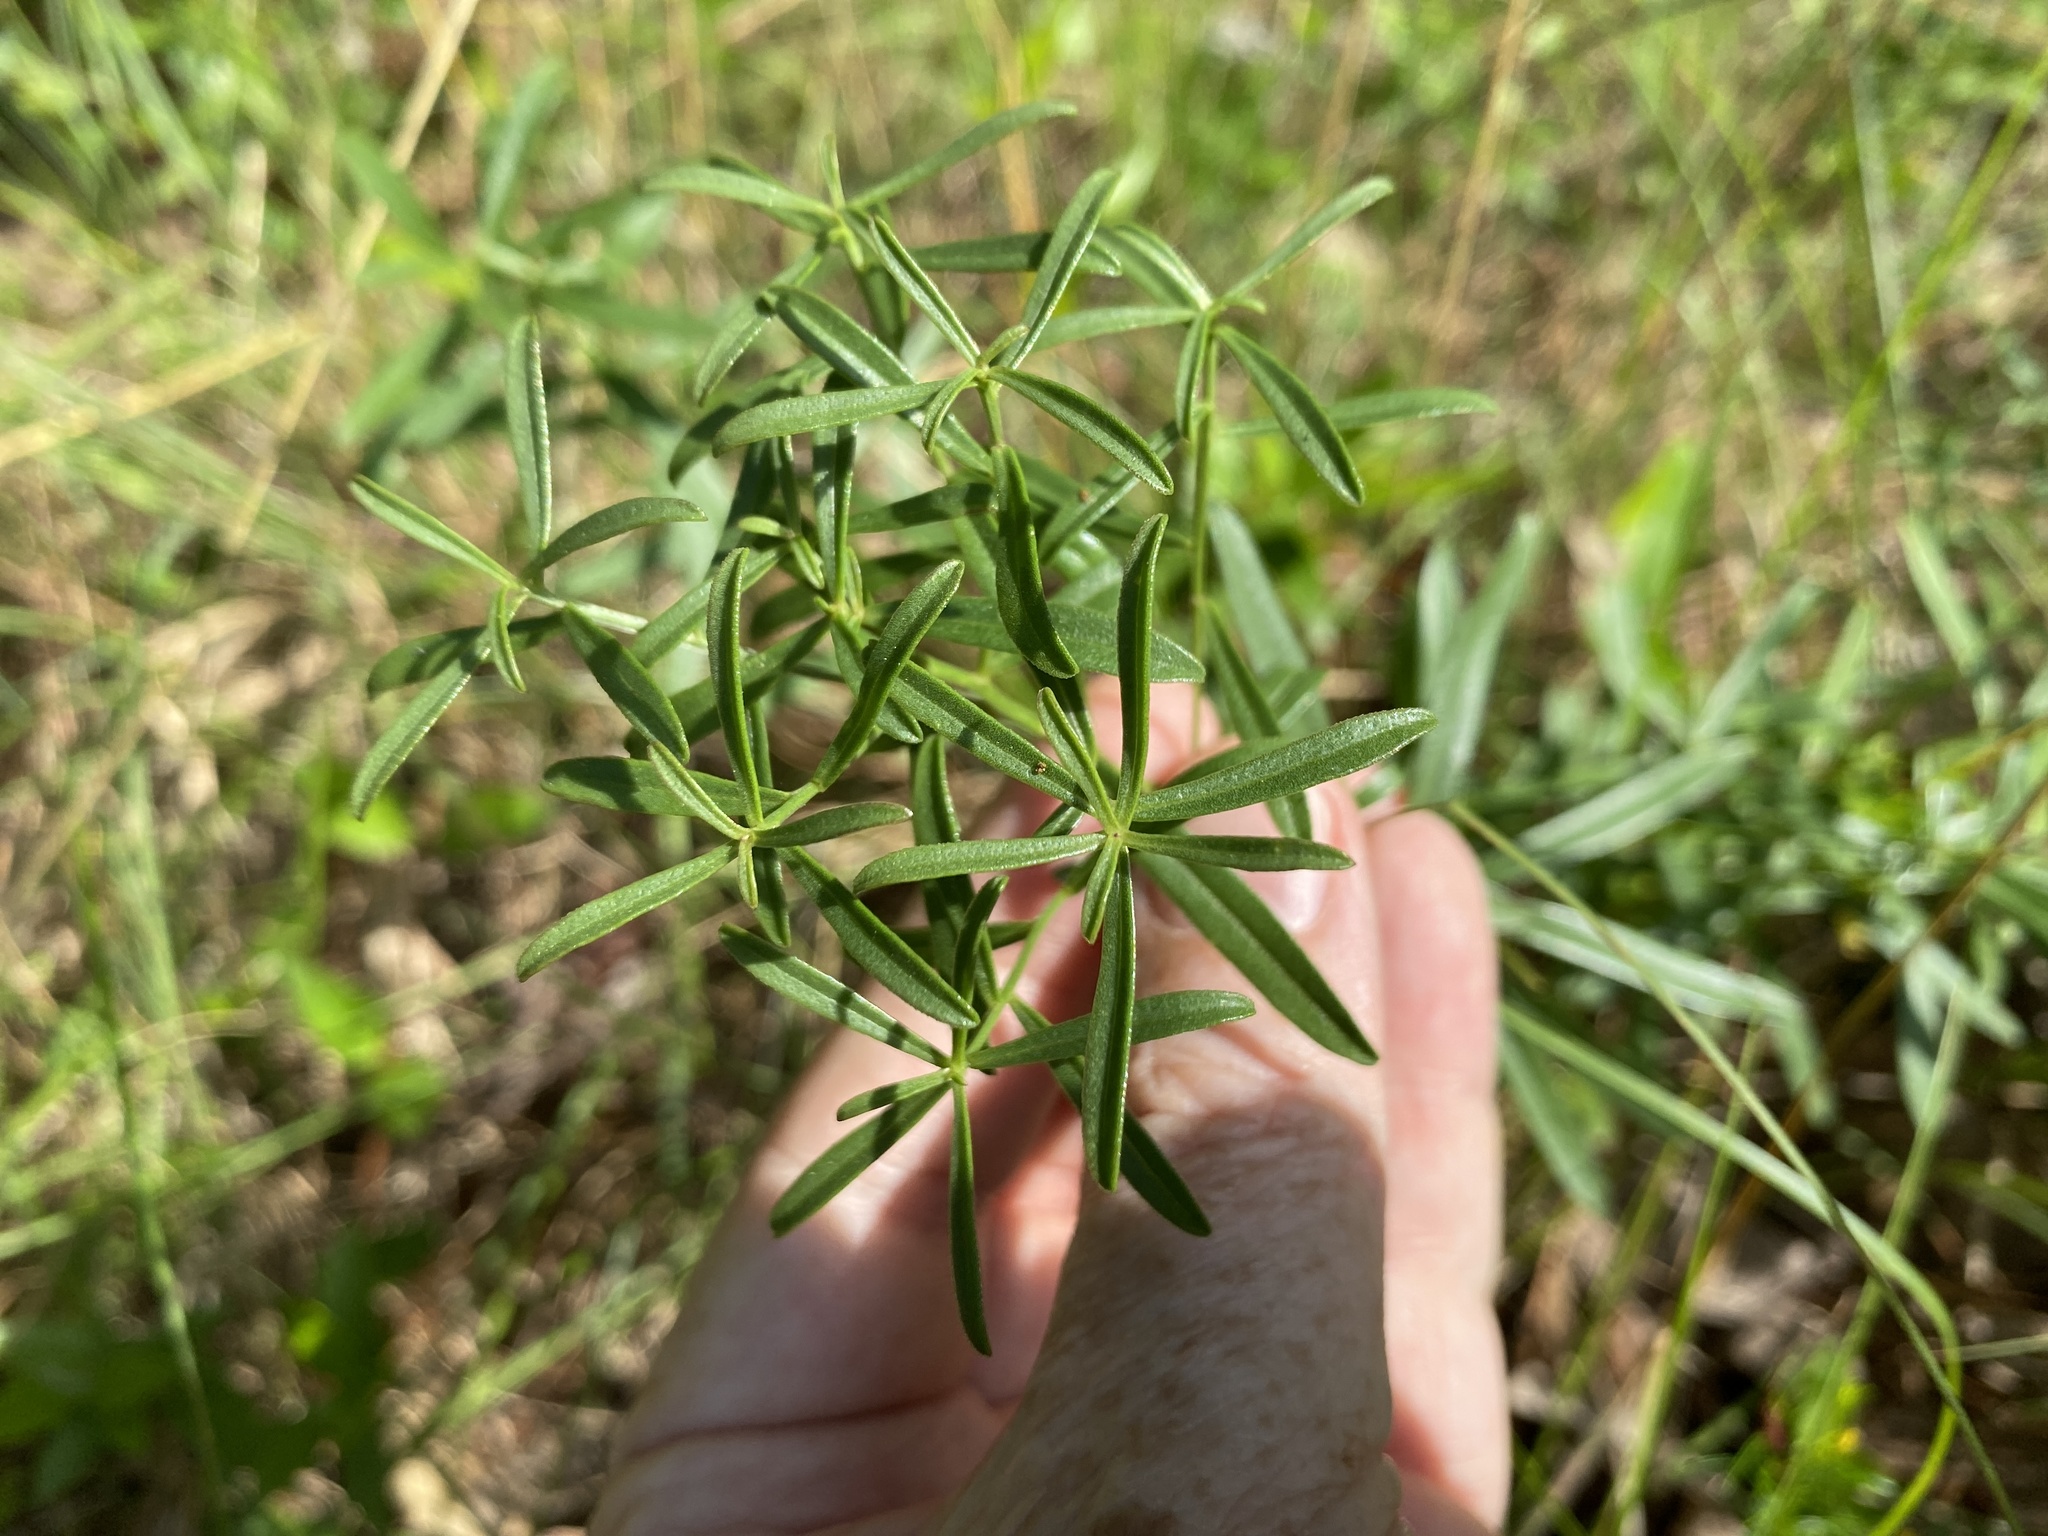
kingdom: Plantae
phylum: Tracheophyta
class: Magnoliopsida
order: Asterales
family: Asteraceae
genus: Sericocarpus
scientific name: Sericocarpus linifolius
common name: Narrow-leaf aster
